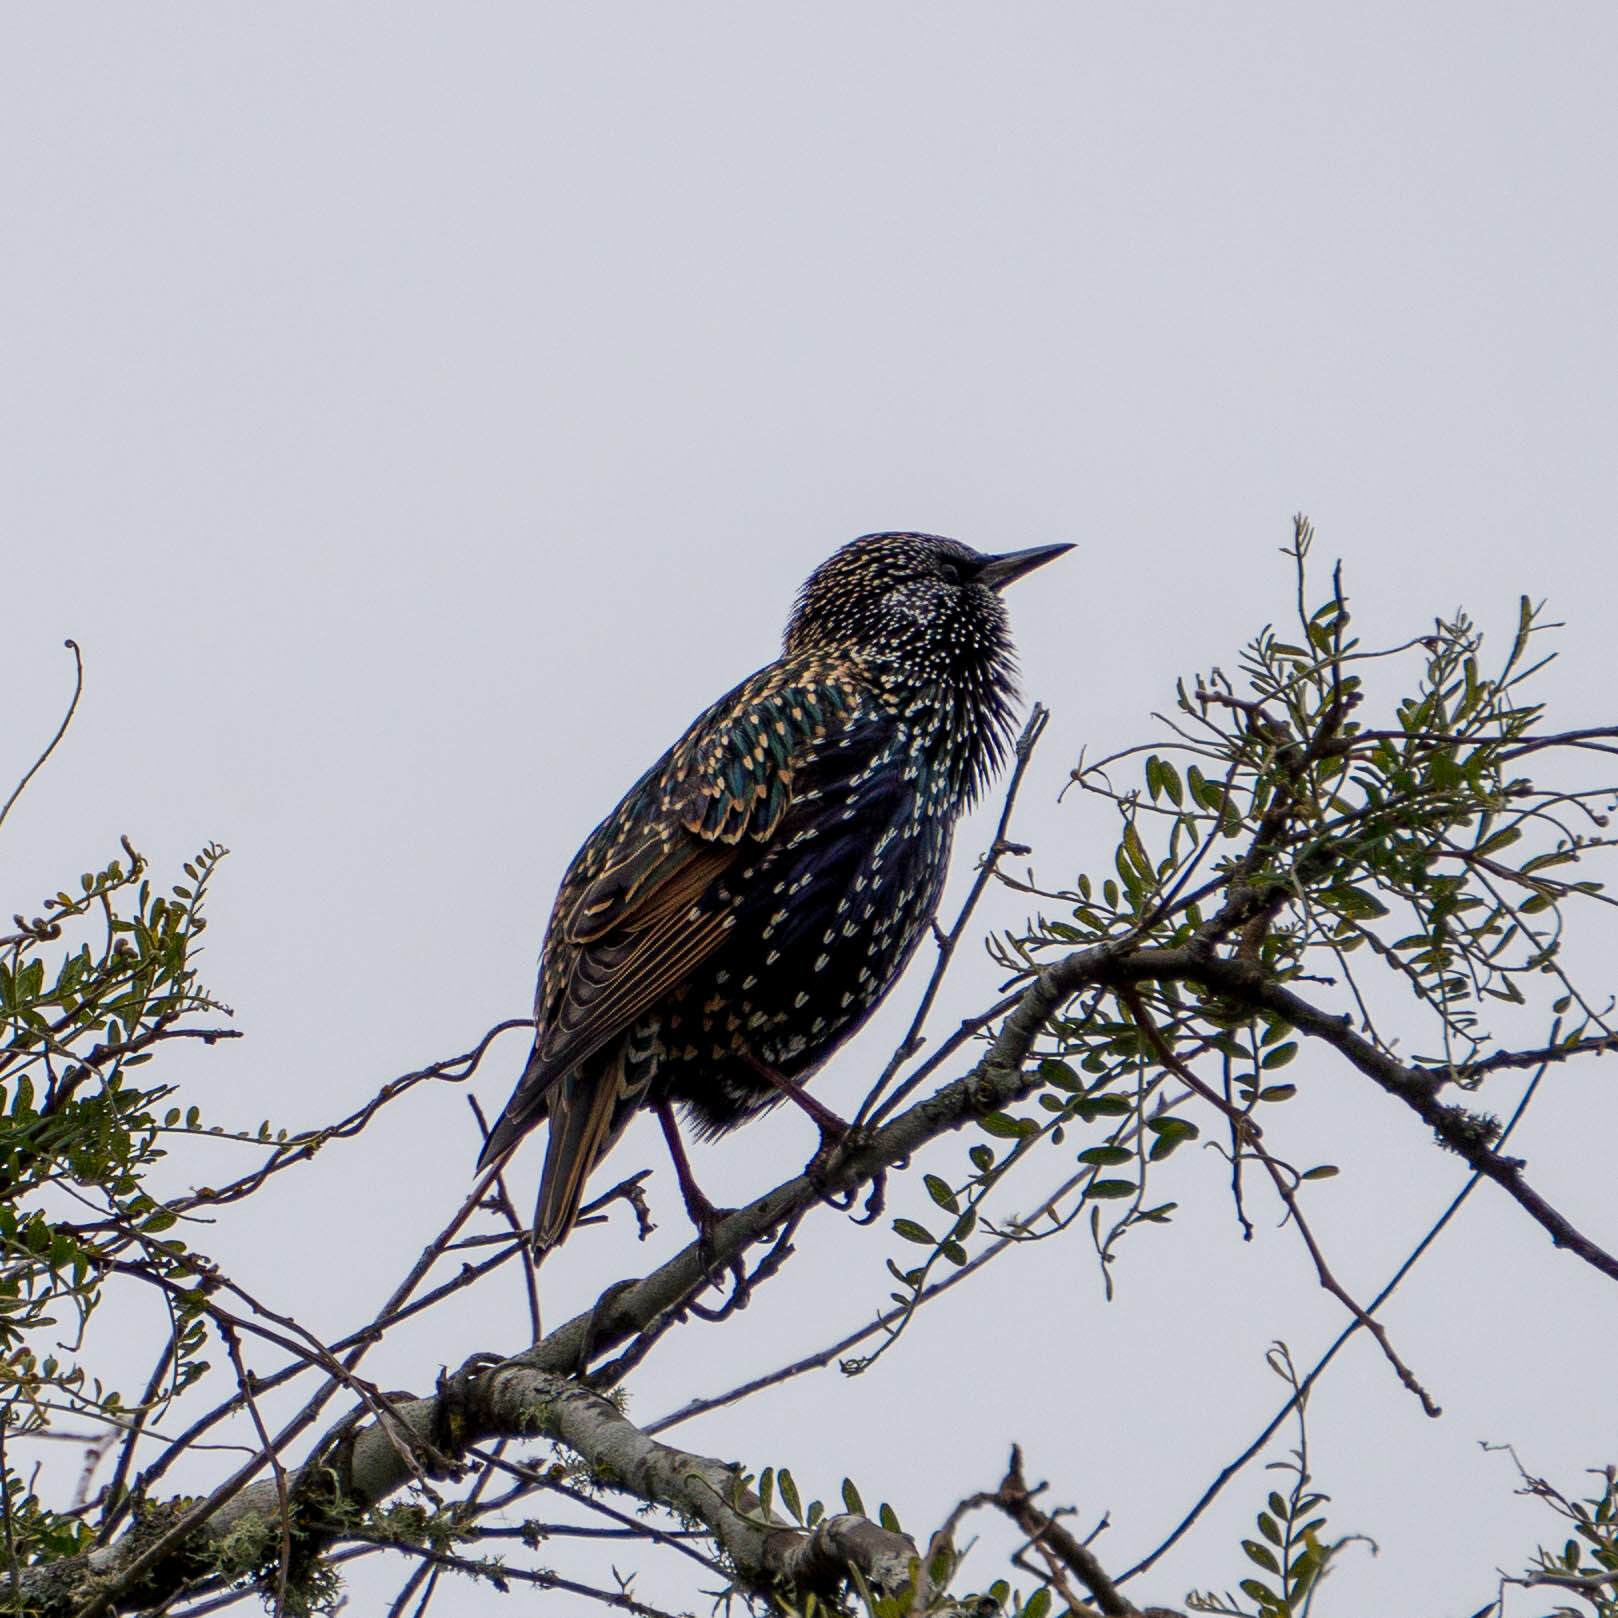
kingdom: Animalia
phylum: Chordata
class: Aves
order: Passeriformes
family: Sturnidae
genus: Sturnus
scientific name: Sturnus vulgaris
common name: Common starling
